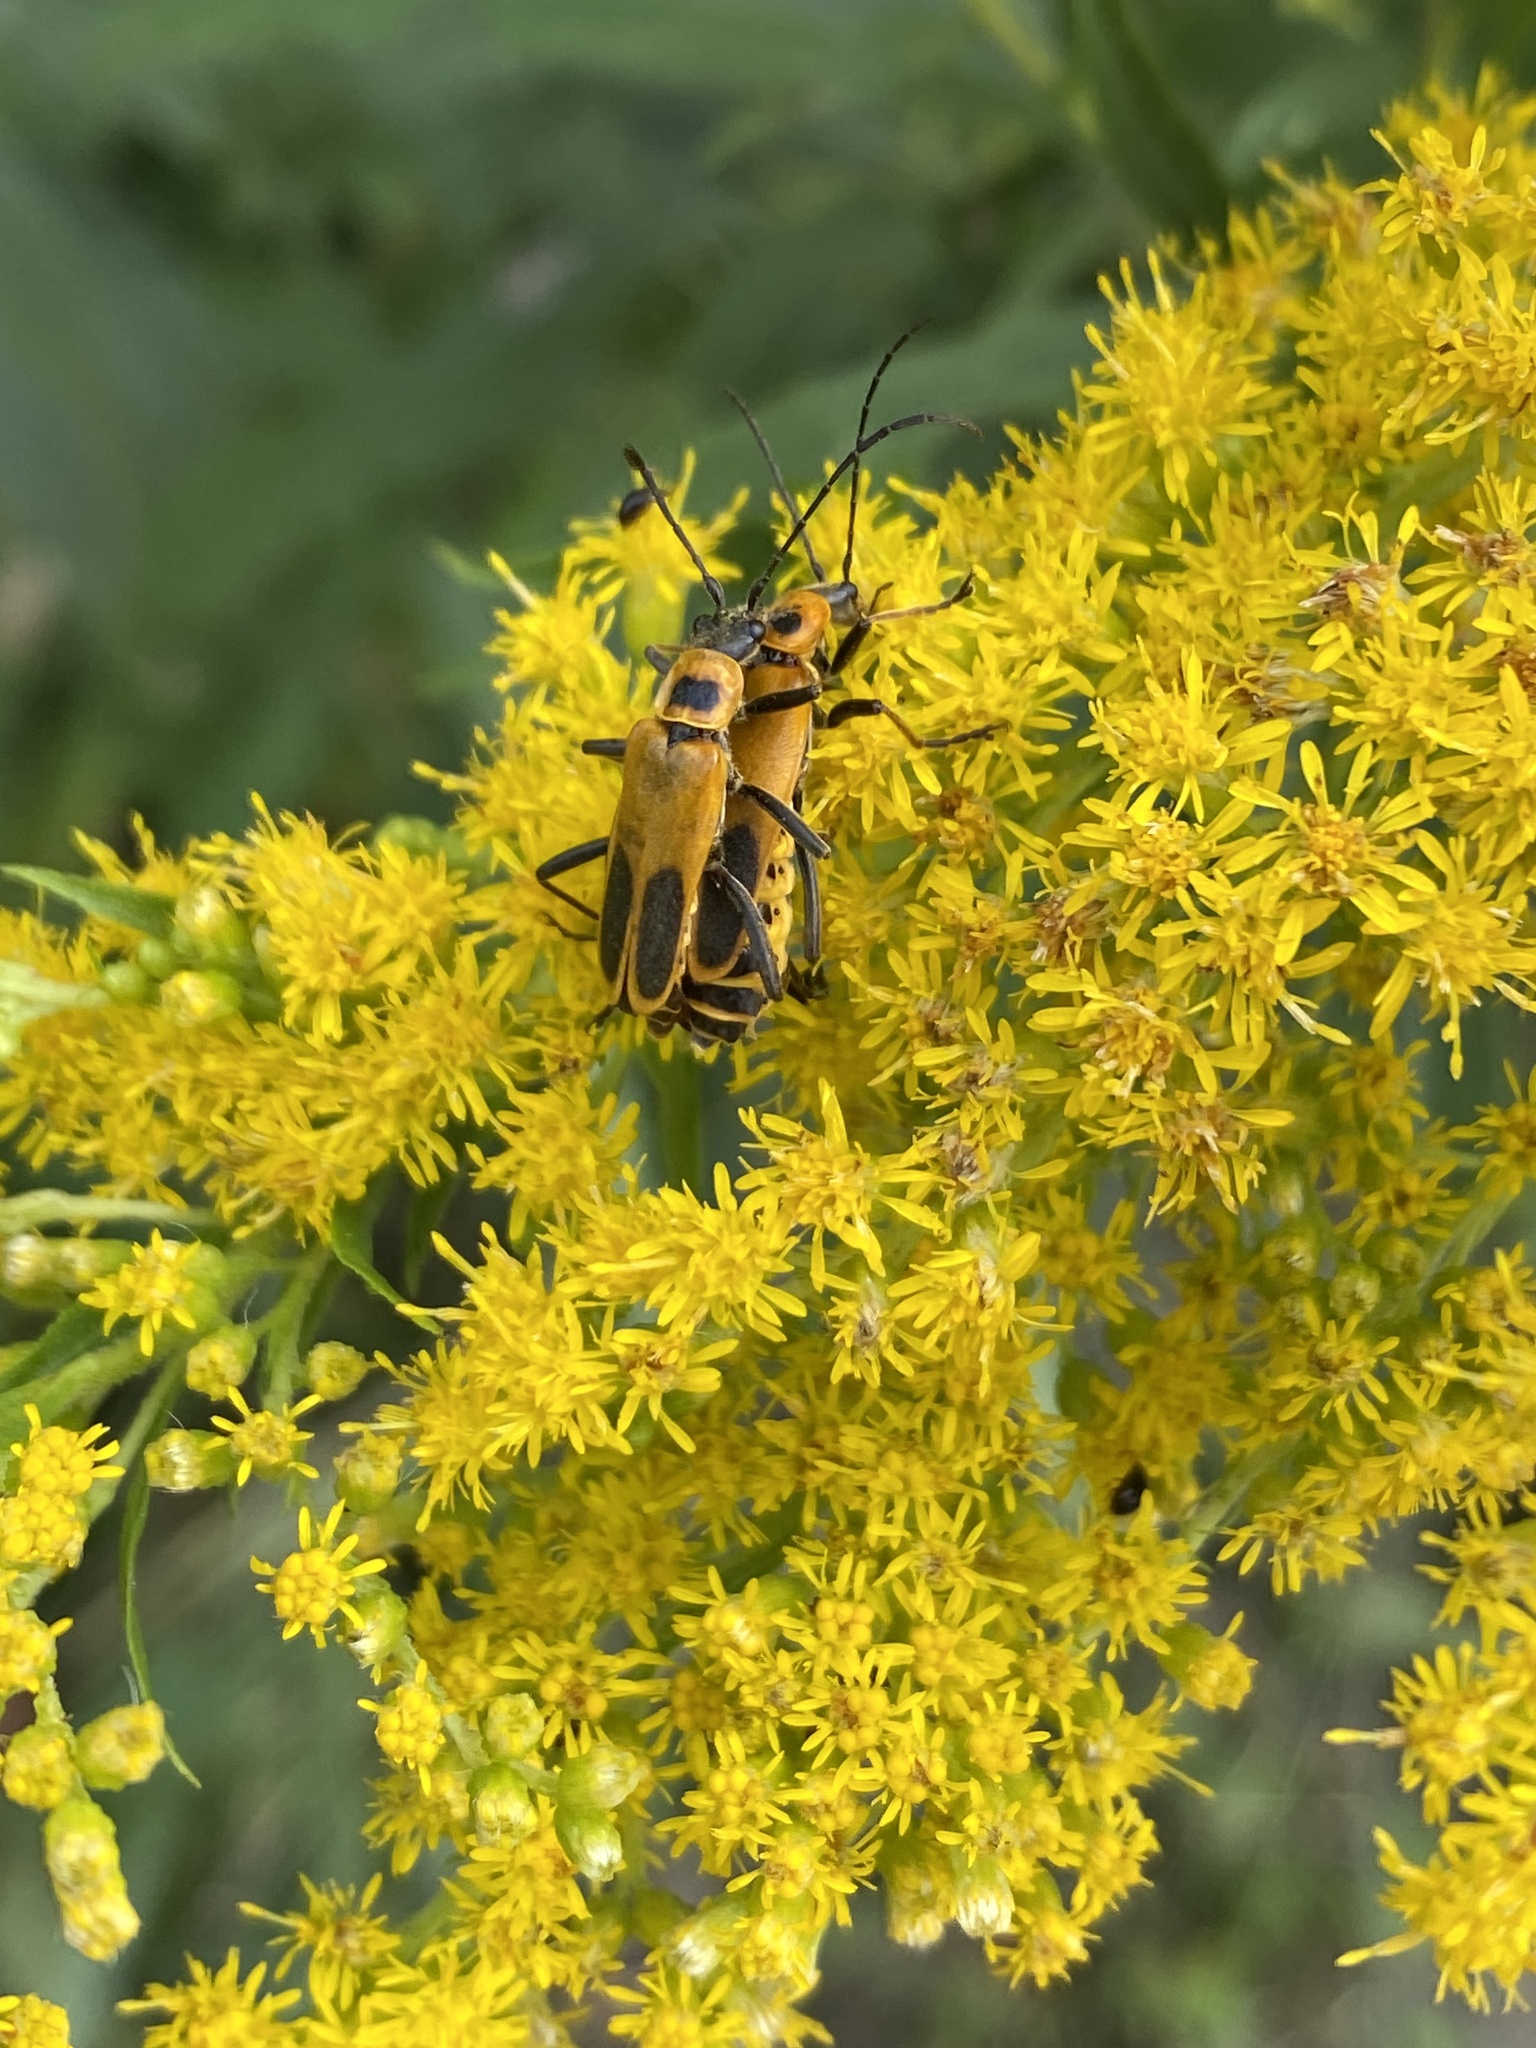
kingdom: Animalia
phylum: Arthropoda
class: Insecta
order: Coleoptera
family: Cantharidae
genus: Chauliognathus
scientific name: Chauliognathus pensylvanicus
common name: Goldenrod soldier beetle
